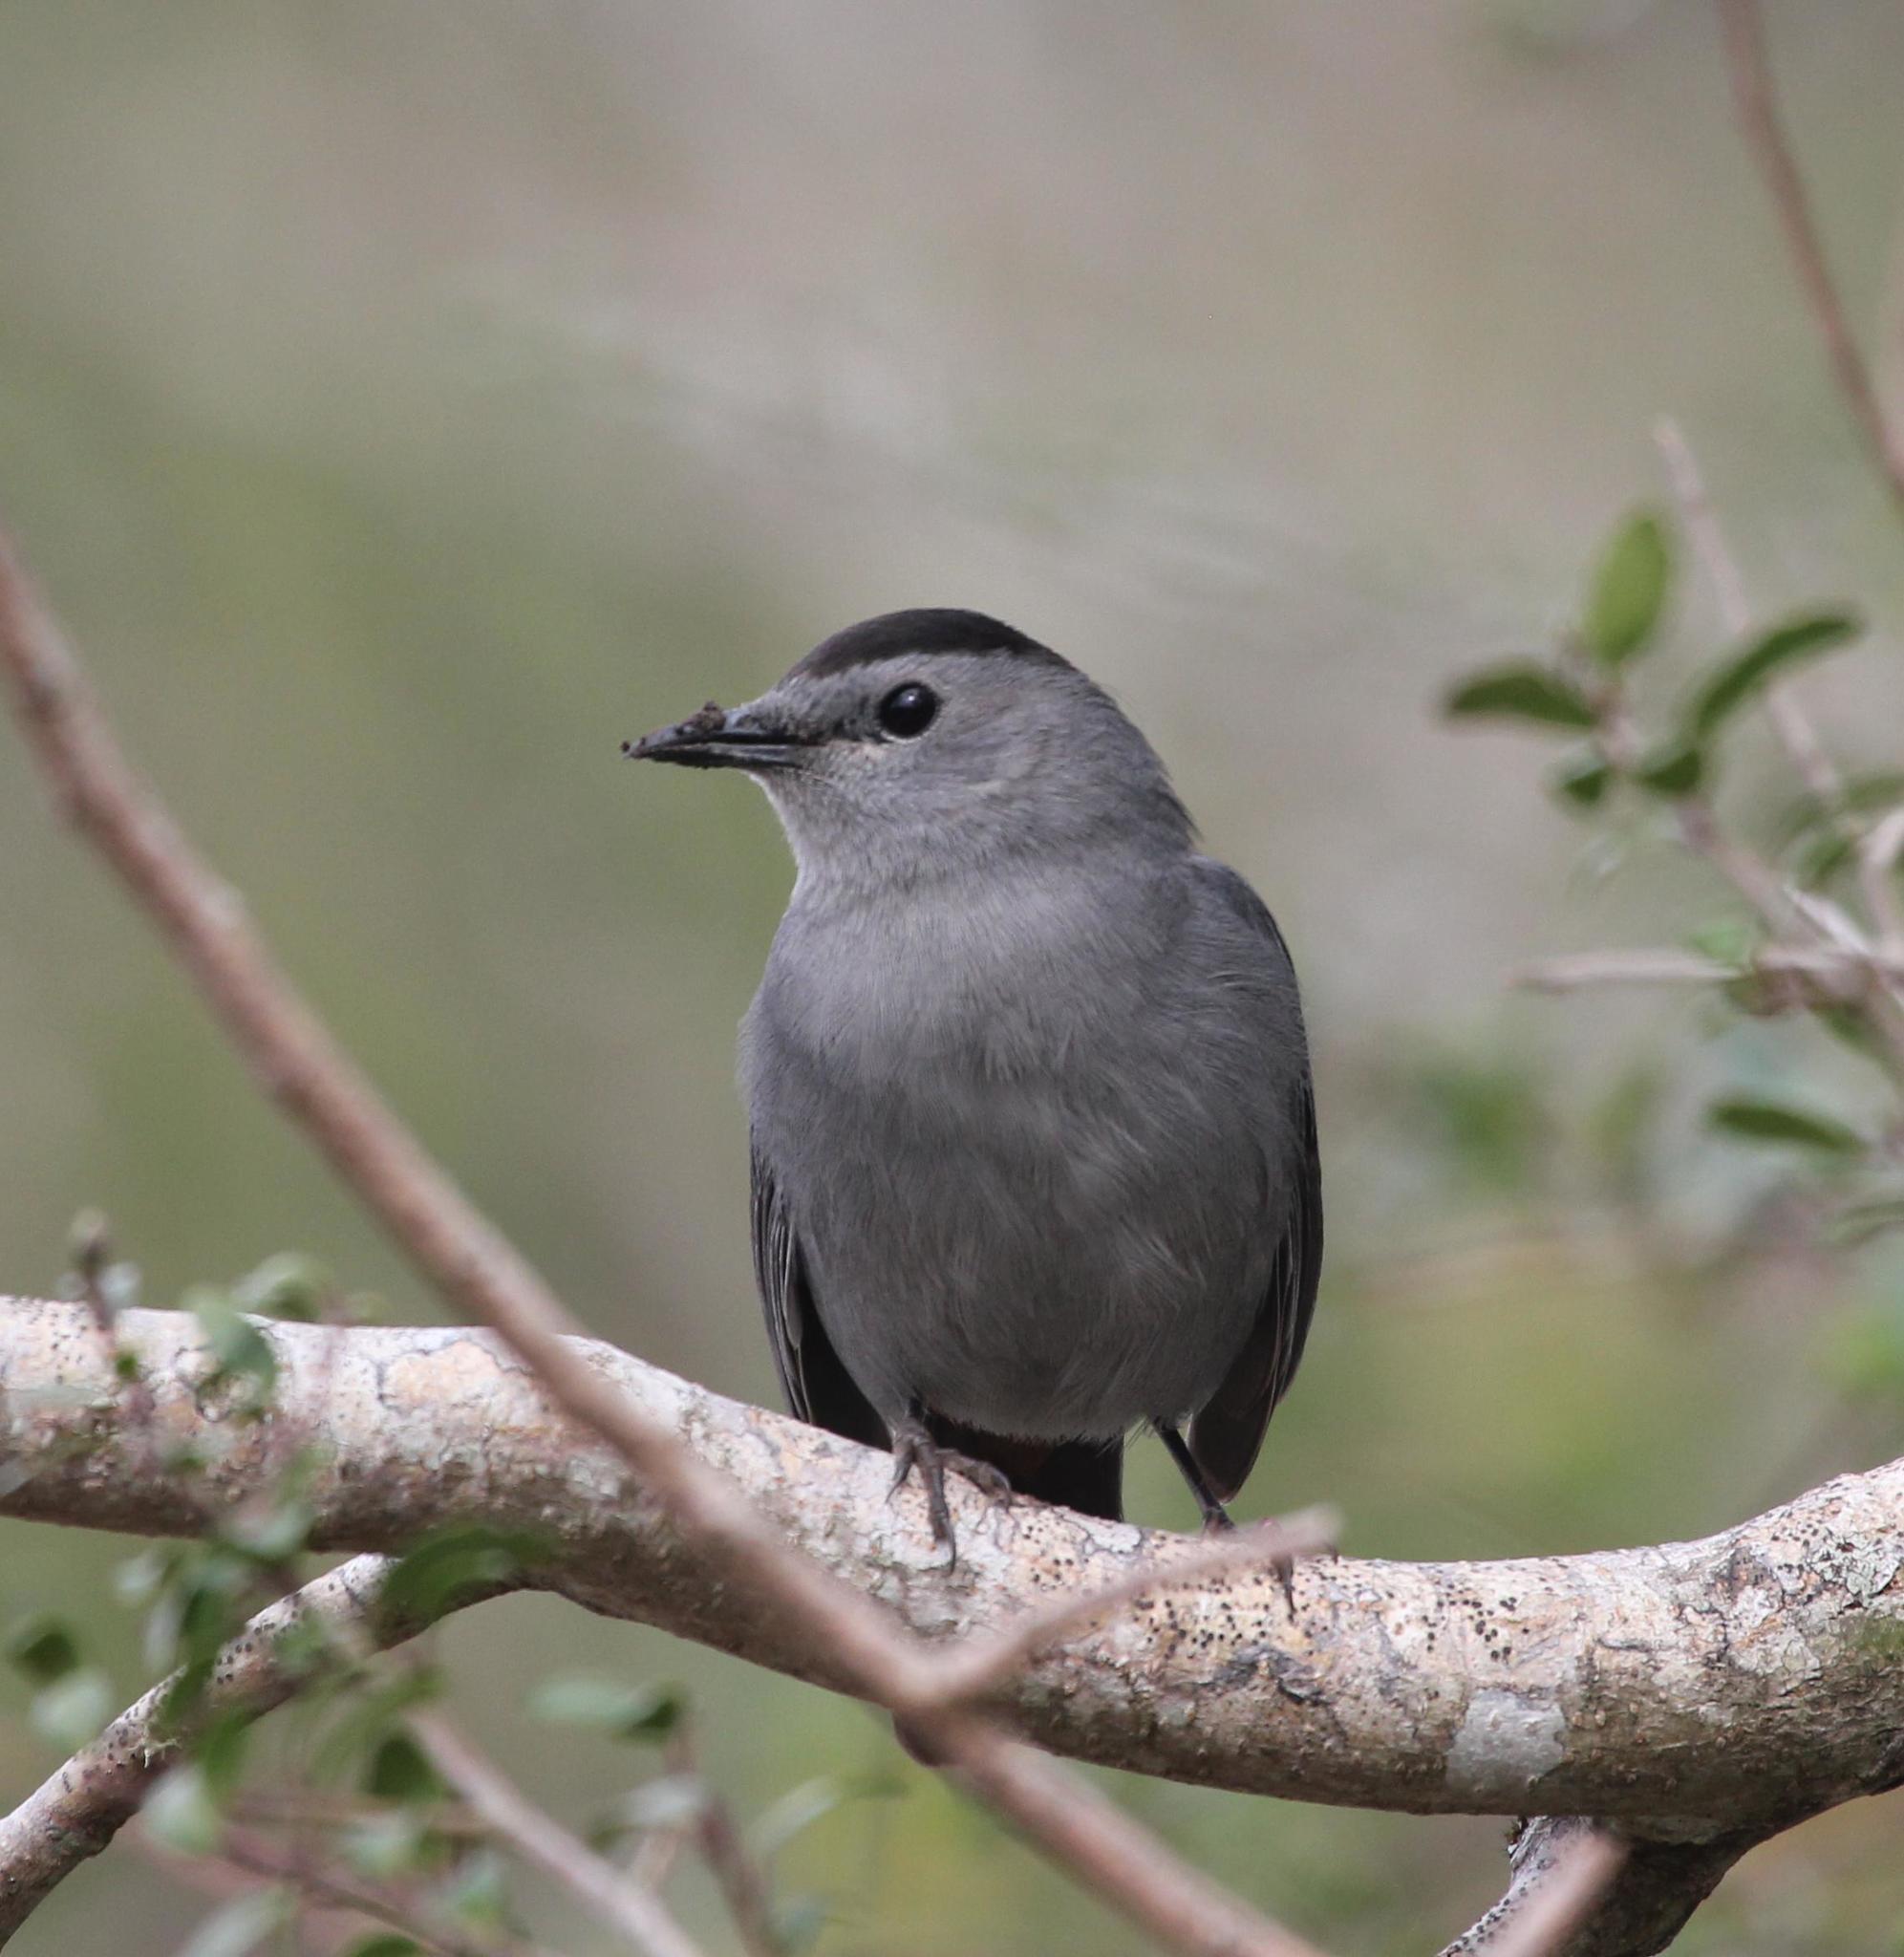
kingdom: Animalia
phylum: Chordata
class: Aves
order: Passeriformes
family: Mimidae
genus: Dumetella
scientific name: Dumetella carolinensis
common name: Gray catbird
